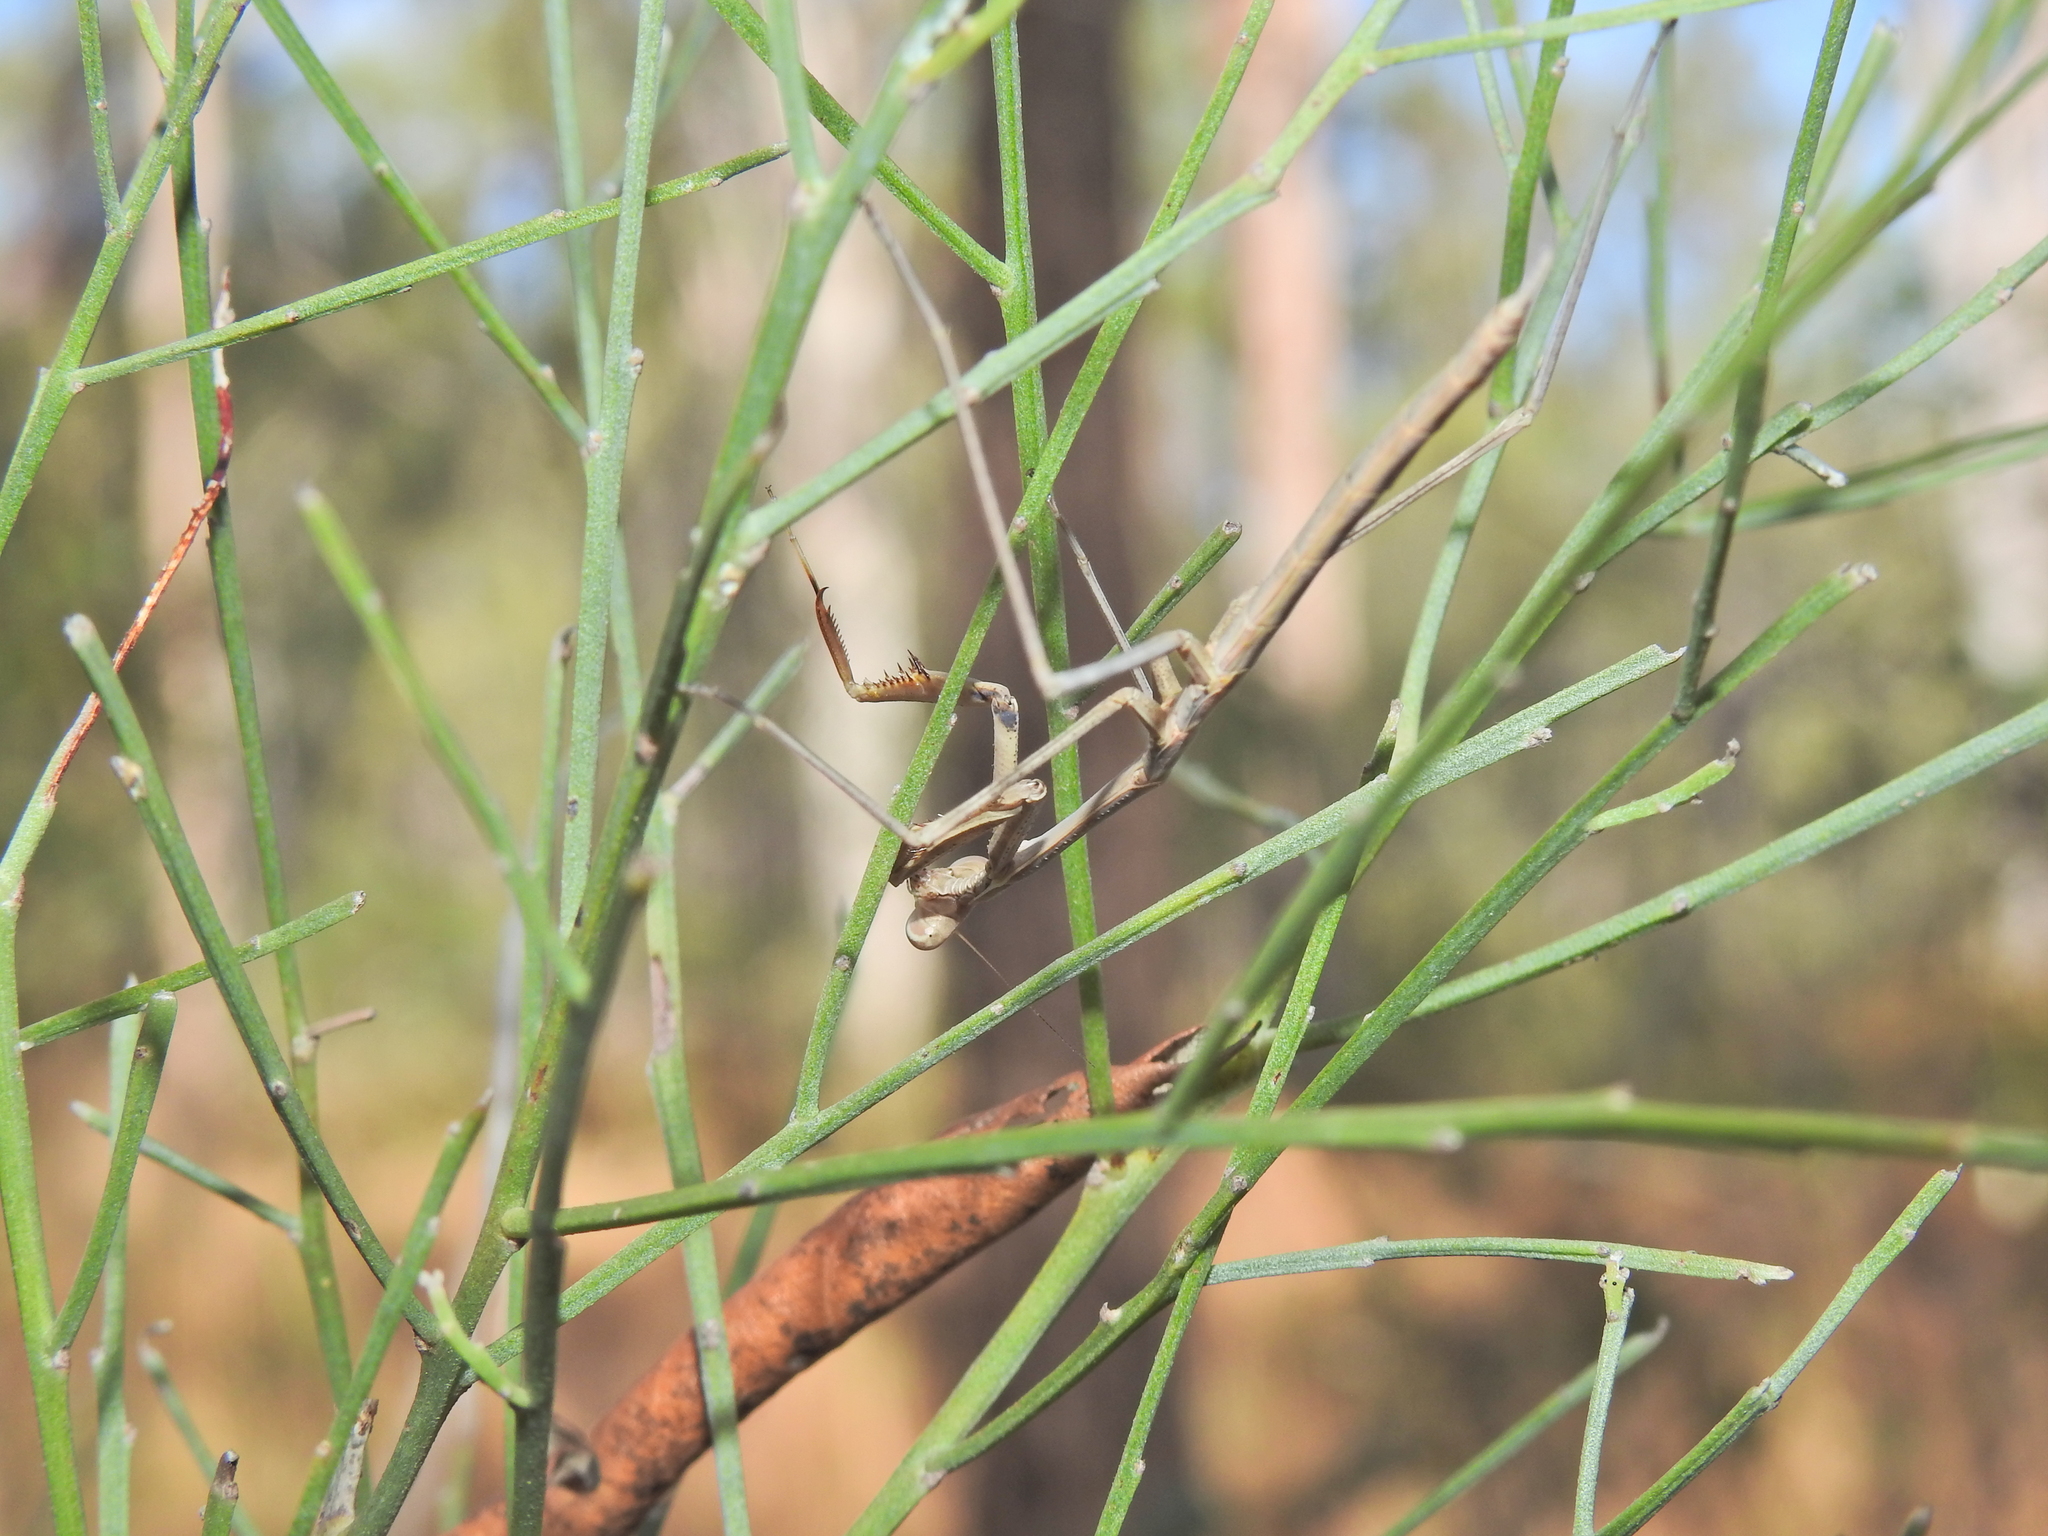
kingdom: Animalia
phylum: Arthropoda
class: Insecta
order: Mantodea
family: Mantidae
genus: Archimantis
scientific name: Archimantis latistyla
